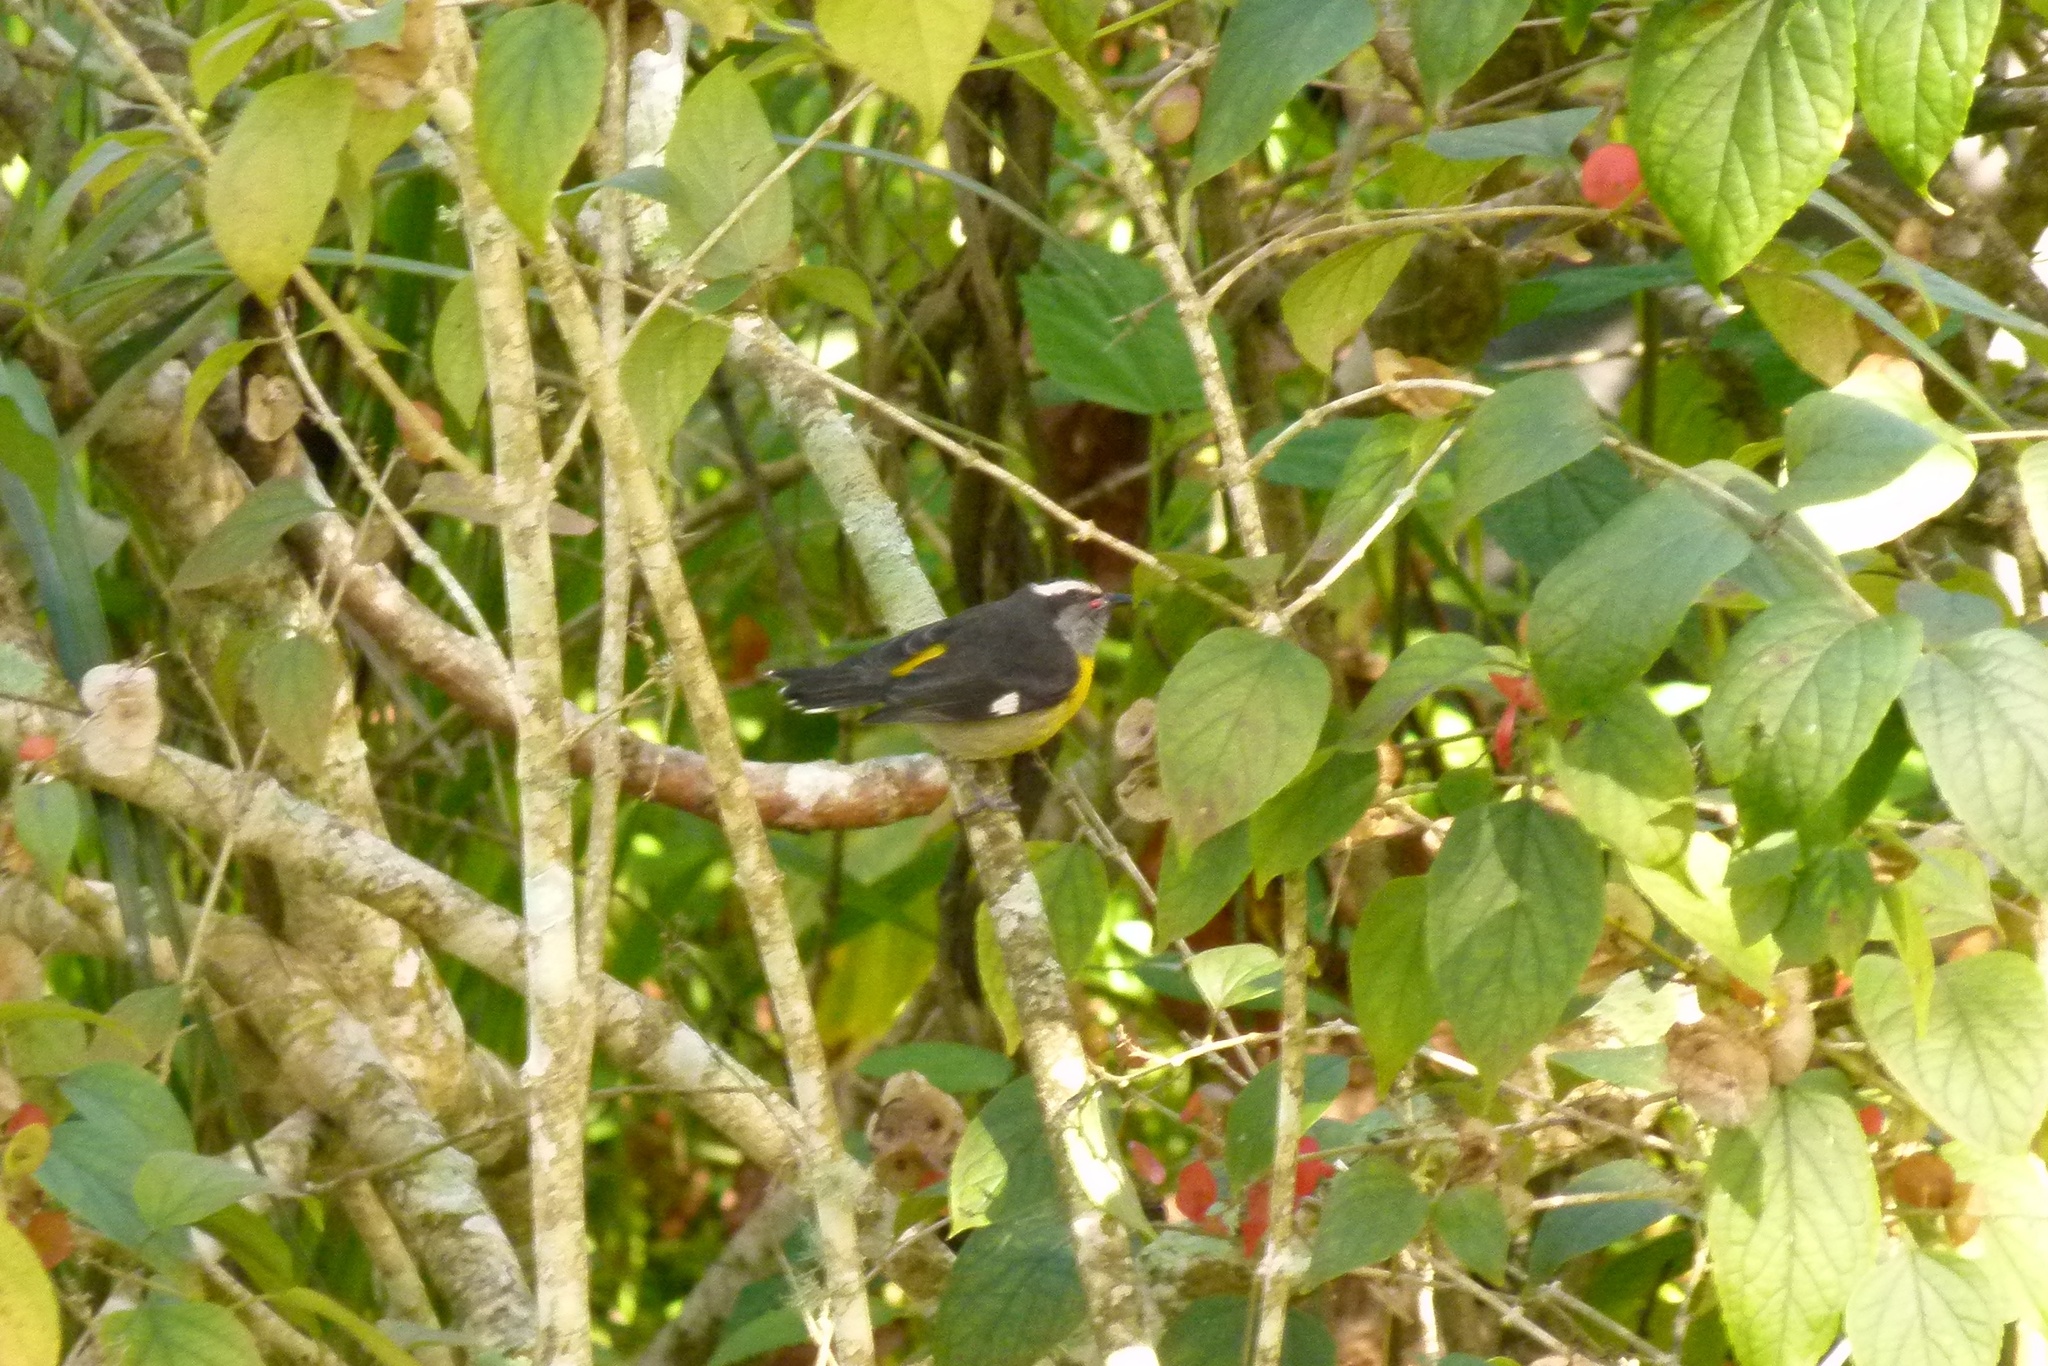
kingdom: Animalia
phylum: Chordata
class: Aves
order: Passeriformes
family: Thraupidae
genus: Coereba
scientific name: Coereba flaveola
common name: Bananaquit
